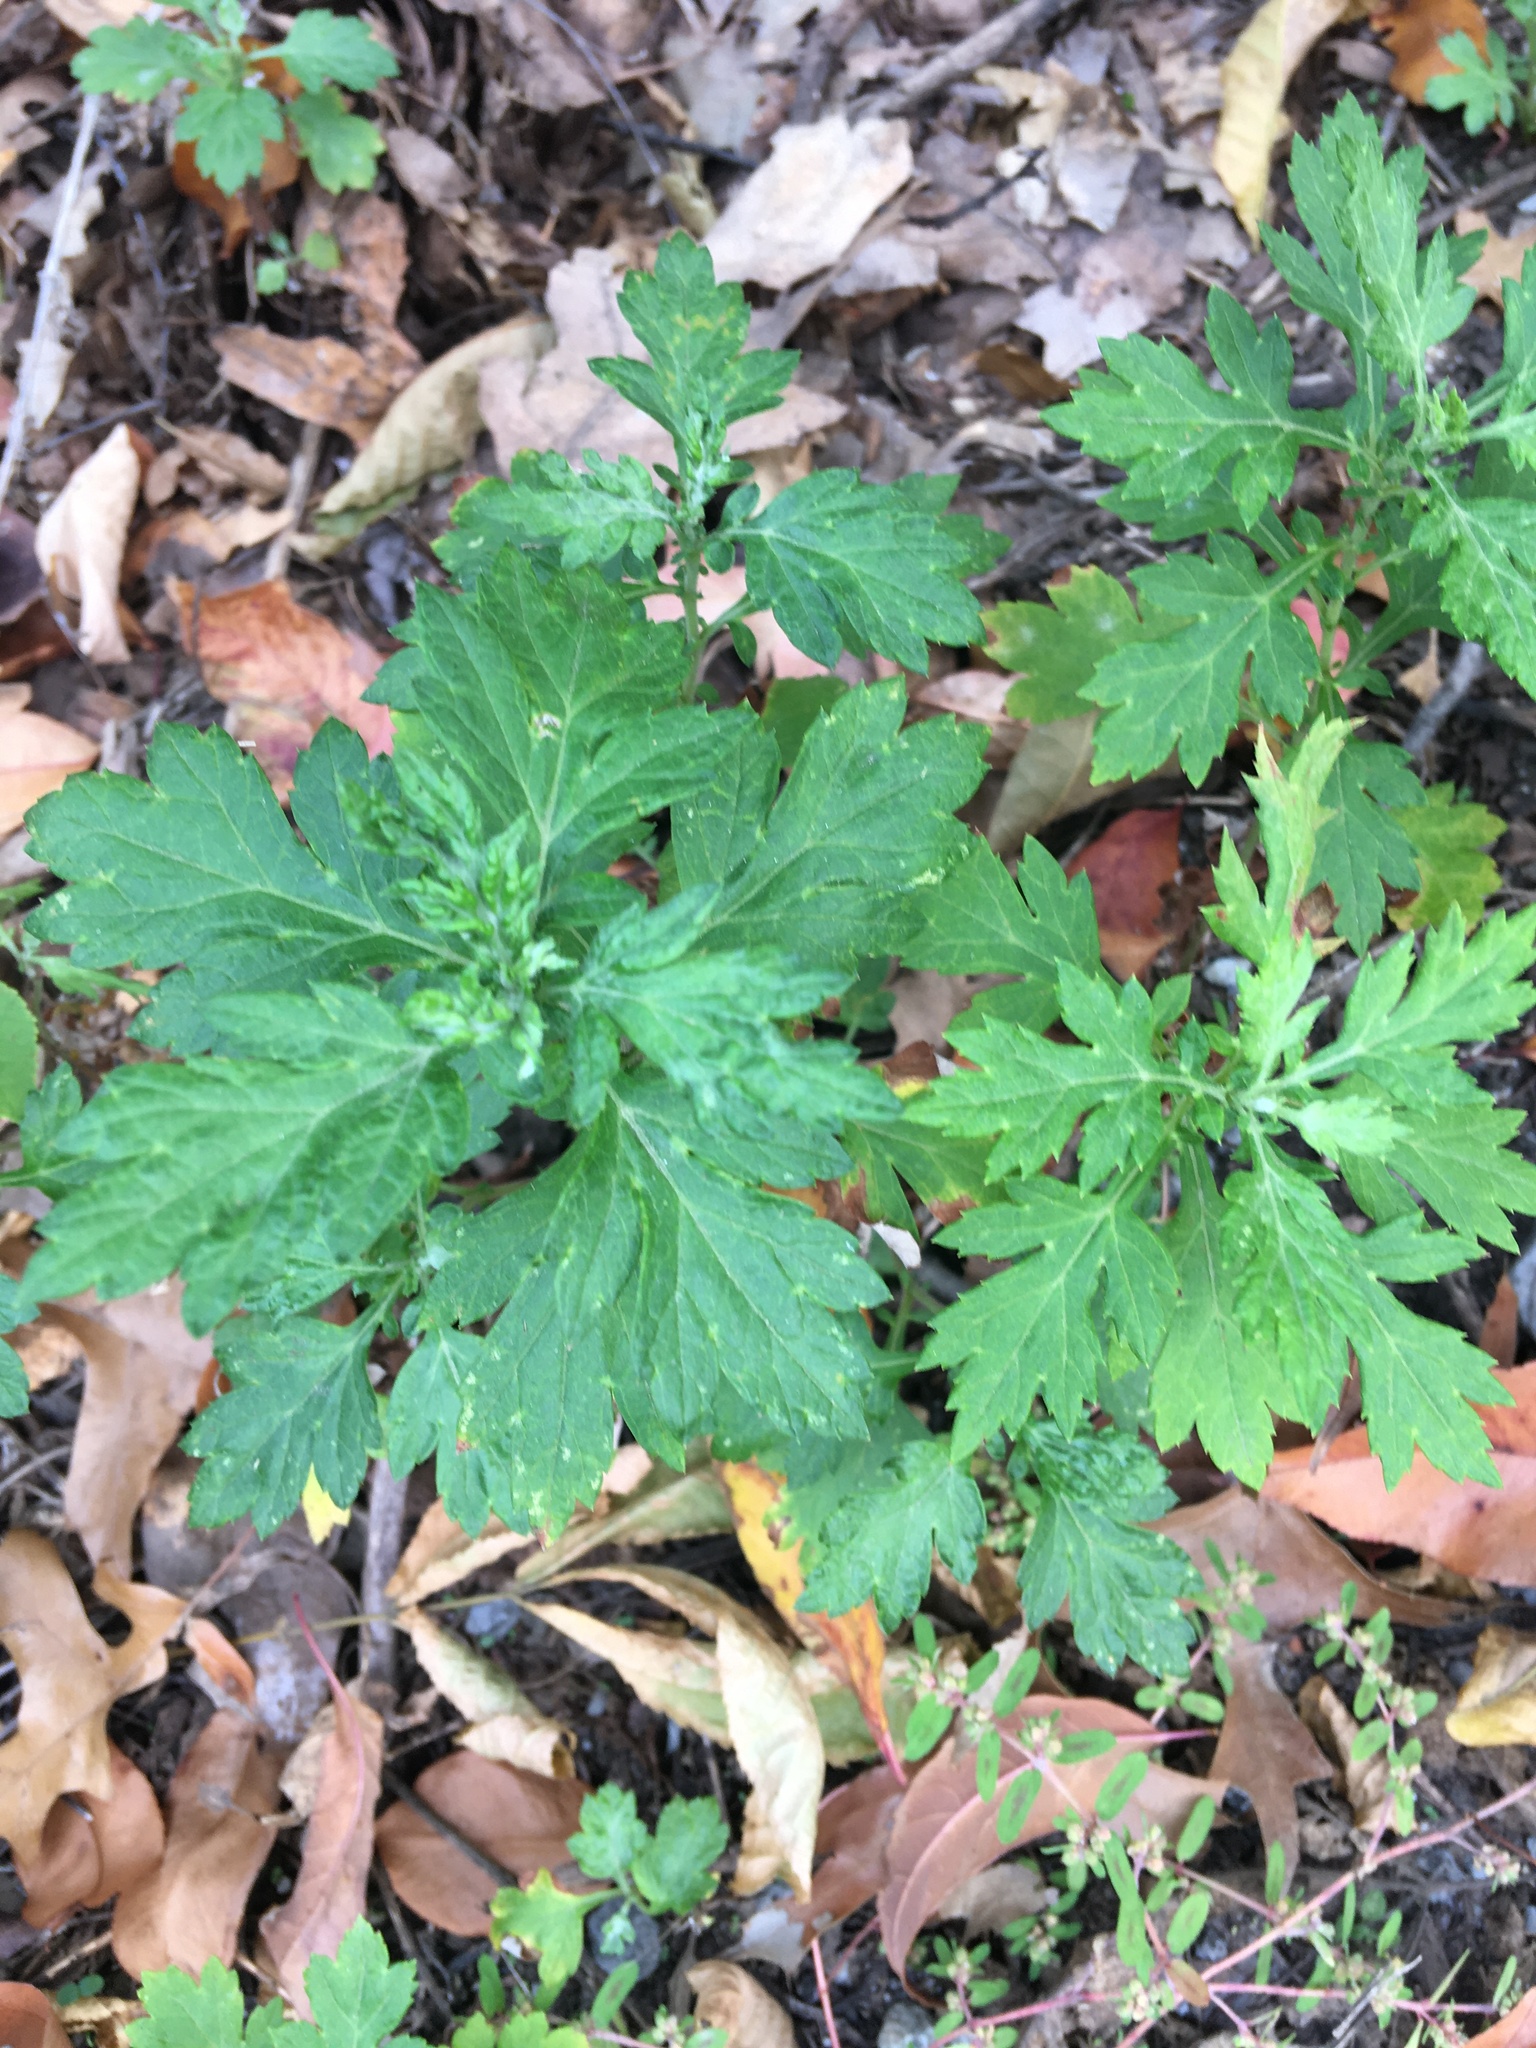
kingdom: Plantae
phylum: Tracheophyta
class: Magnoliopsida
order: Asterales
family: Asteraceae
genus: Artemisia
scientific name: Artemisia vulgaris
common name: Mugwort
